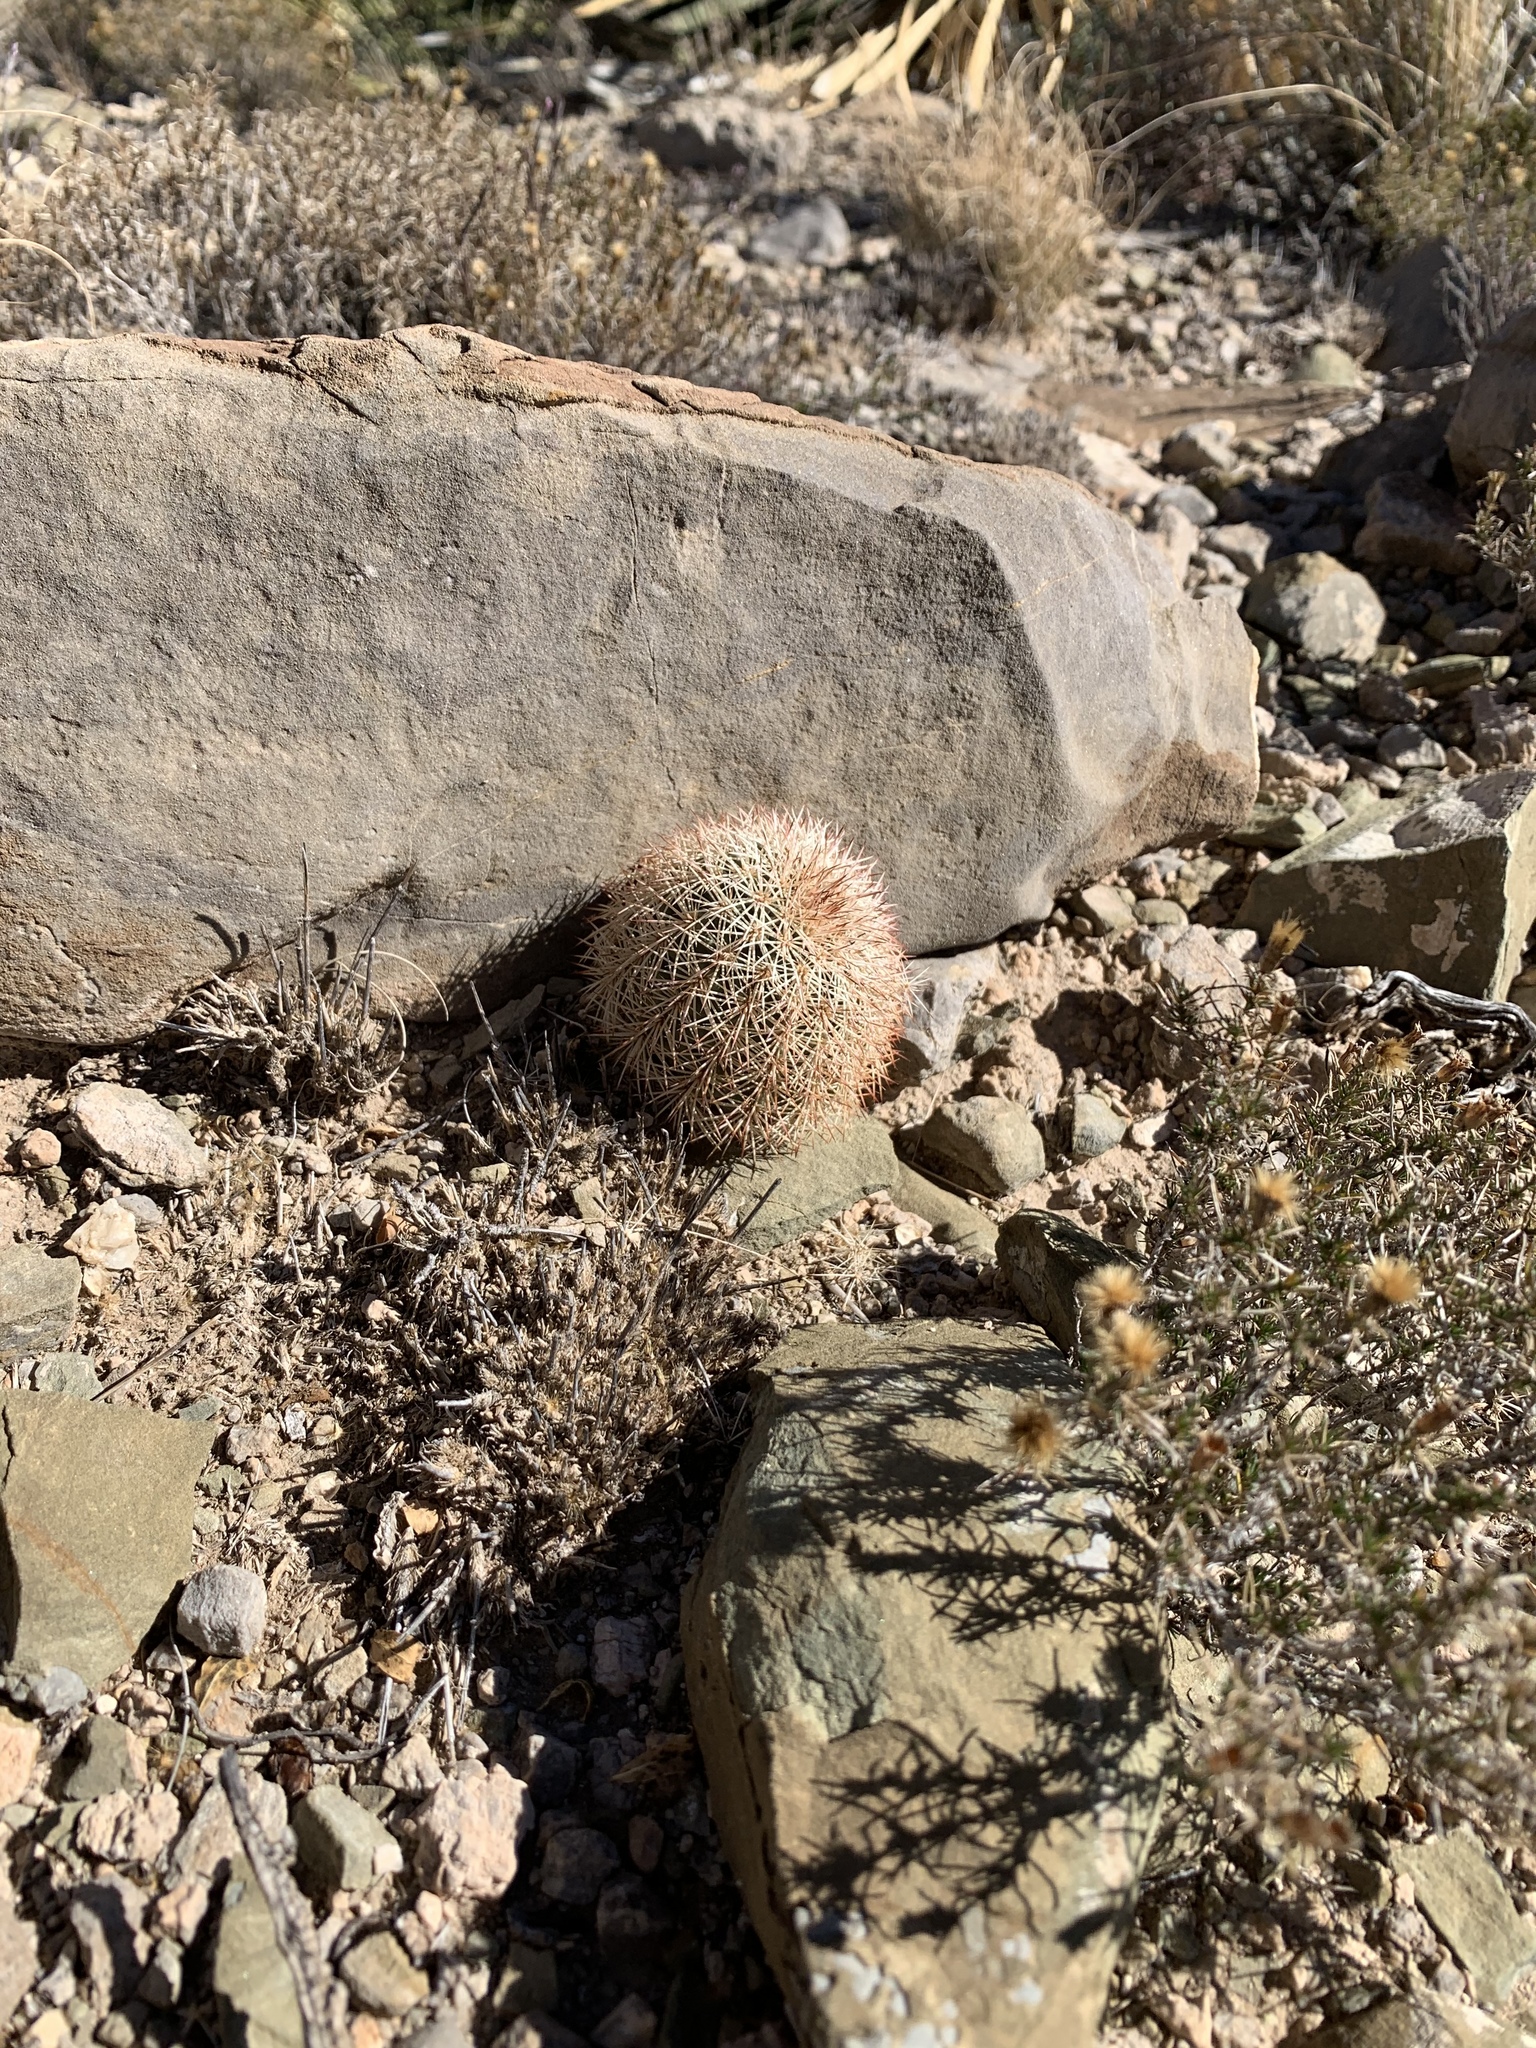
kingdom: Plantae
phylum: Tracheophyta
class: Magnoliopsida
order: Caryophyllales
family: Cactaceae
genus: Echinocereus
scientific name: Echinocereus dasyacanthus
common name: Spiny hedgehog cactus
